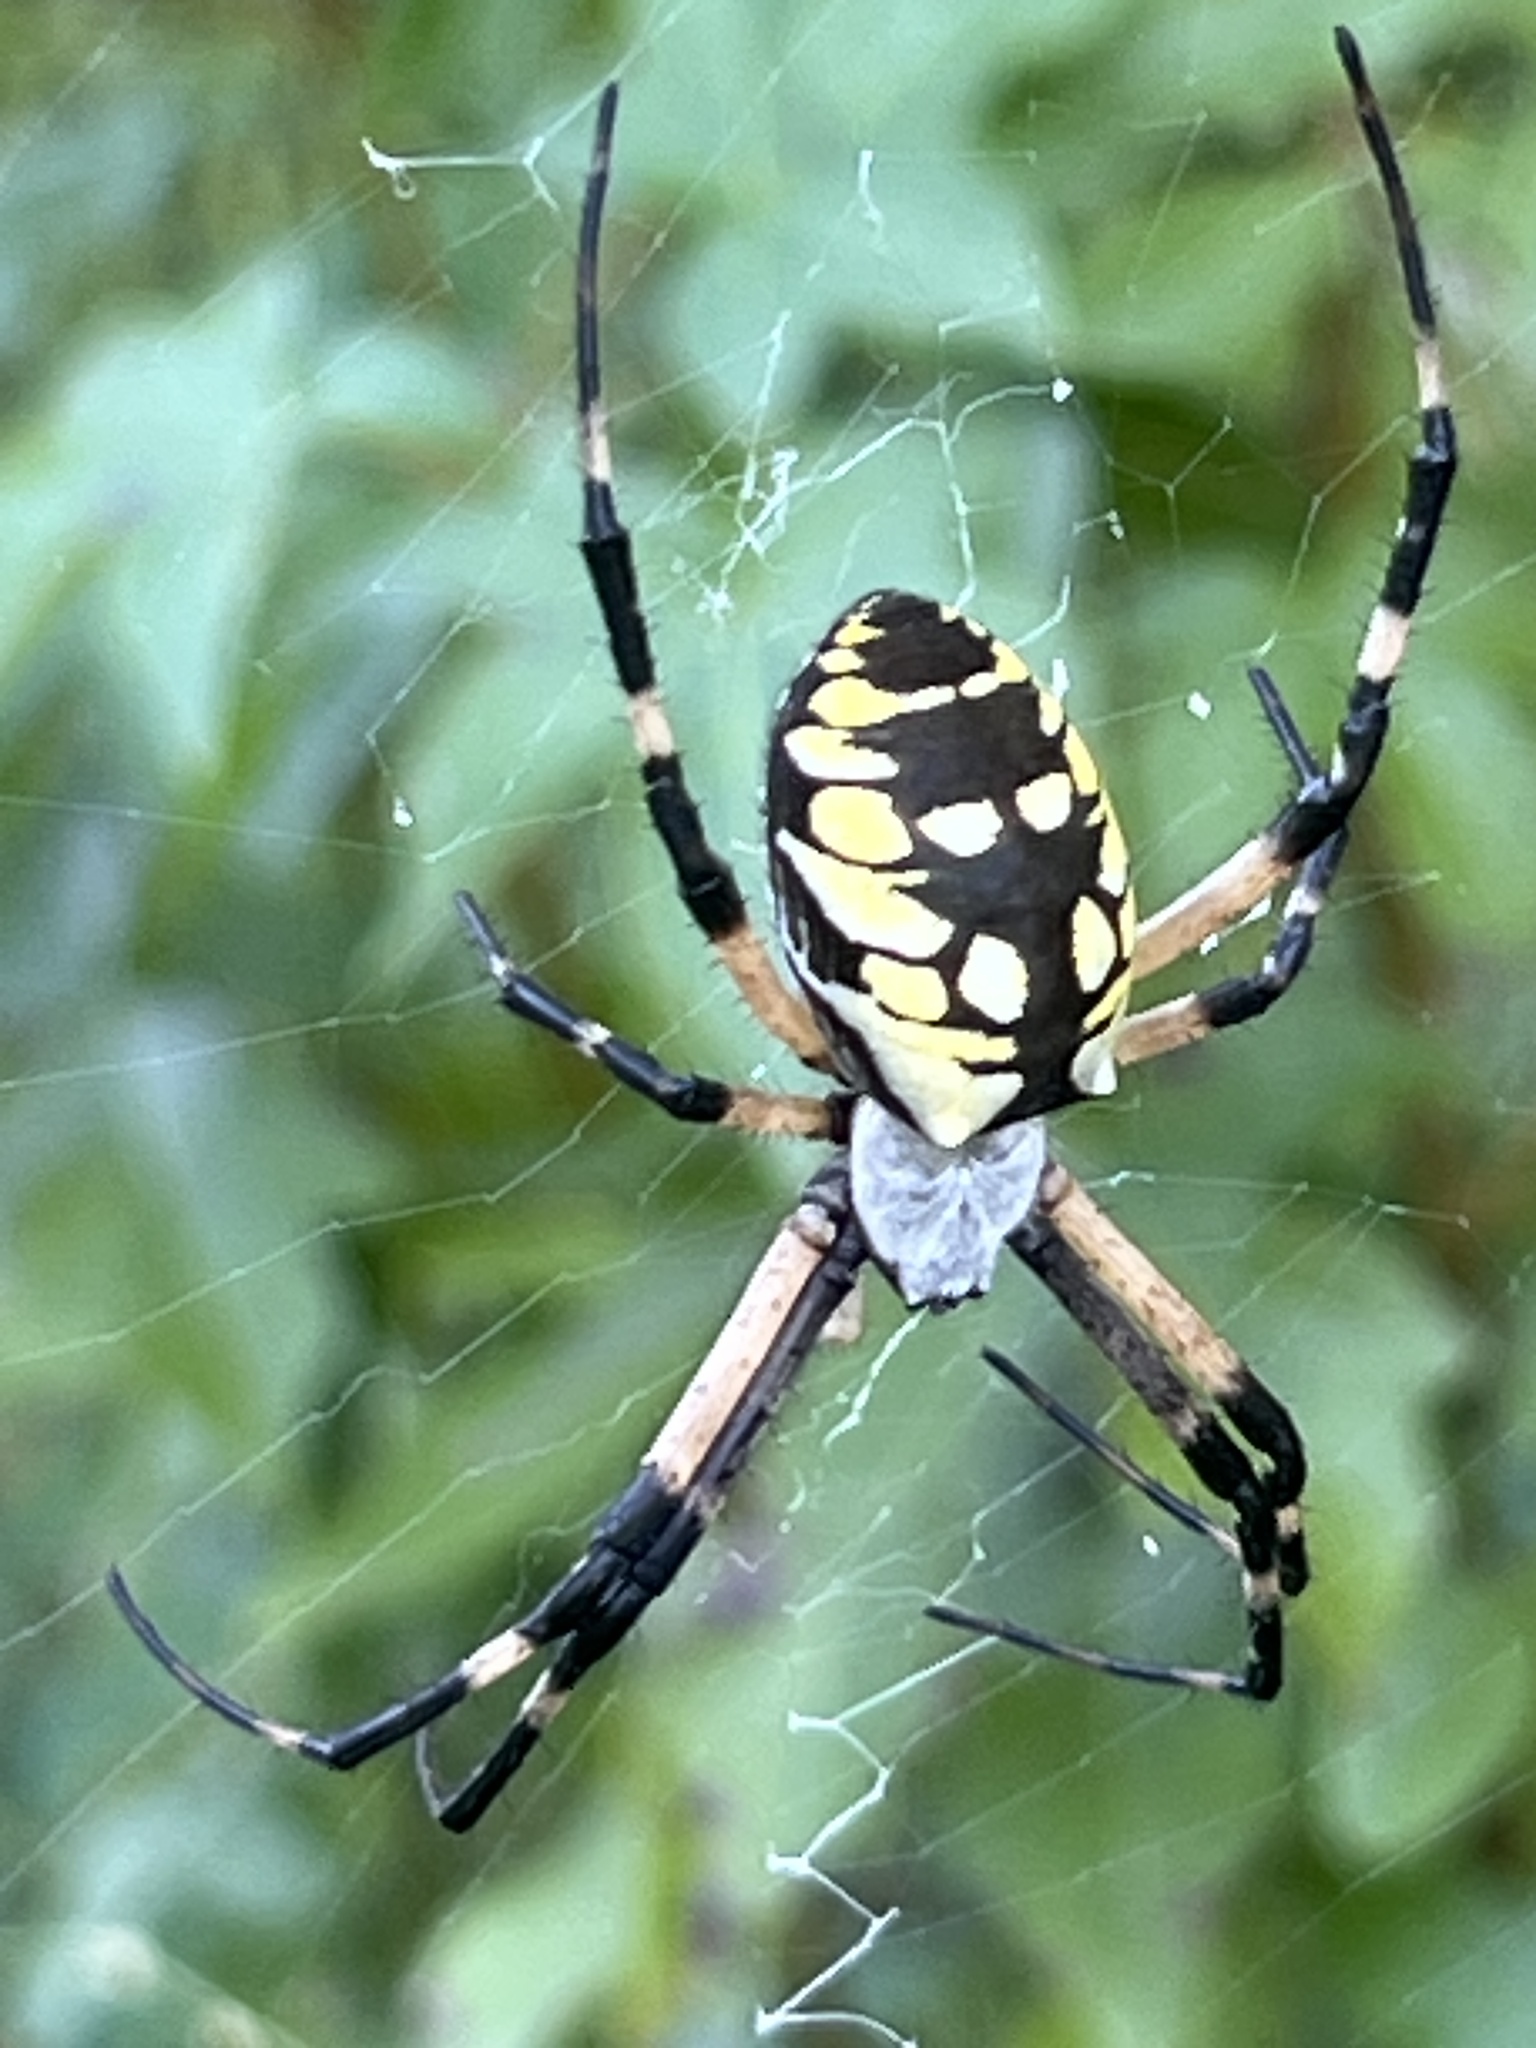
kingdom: Animalia
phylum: Arthropoda
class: Arachnida
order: Araneae
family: Araneidae
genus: Argiope
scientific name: Argiope aurantia
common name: Orb weavers
